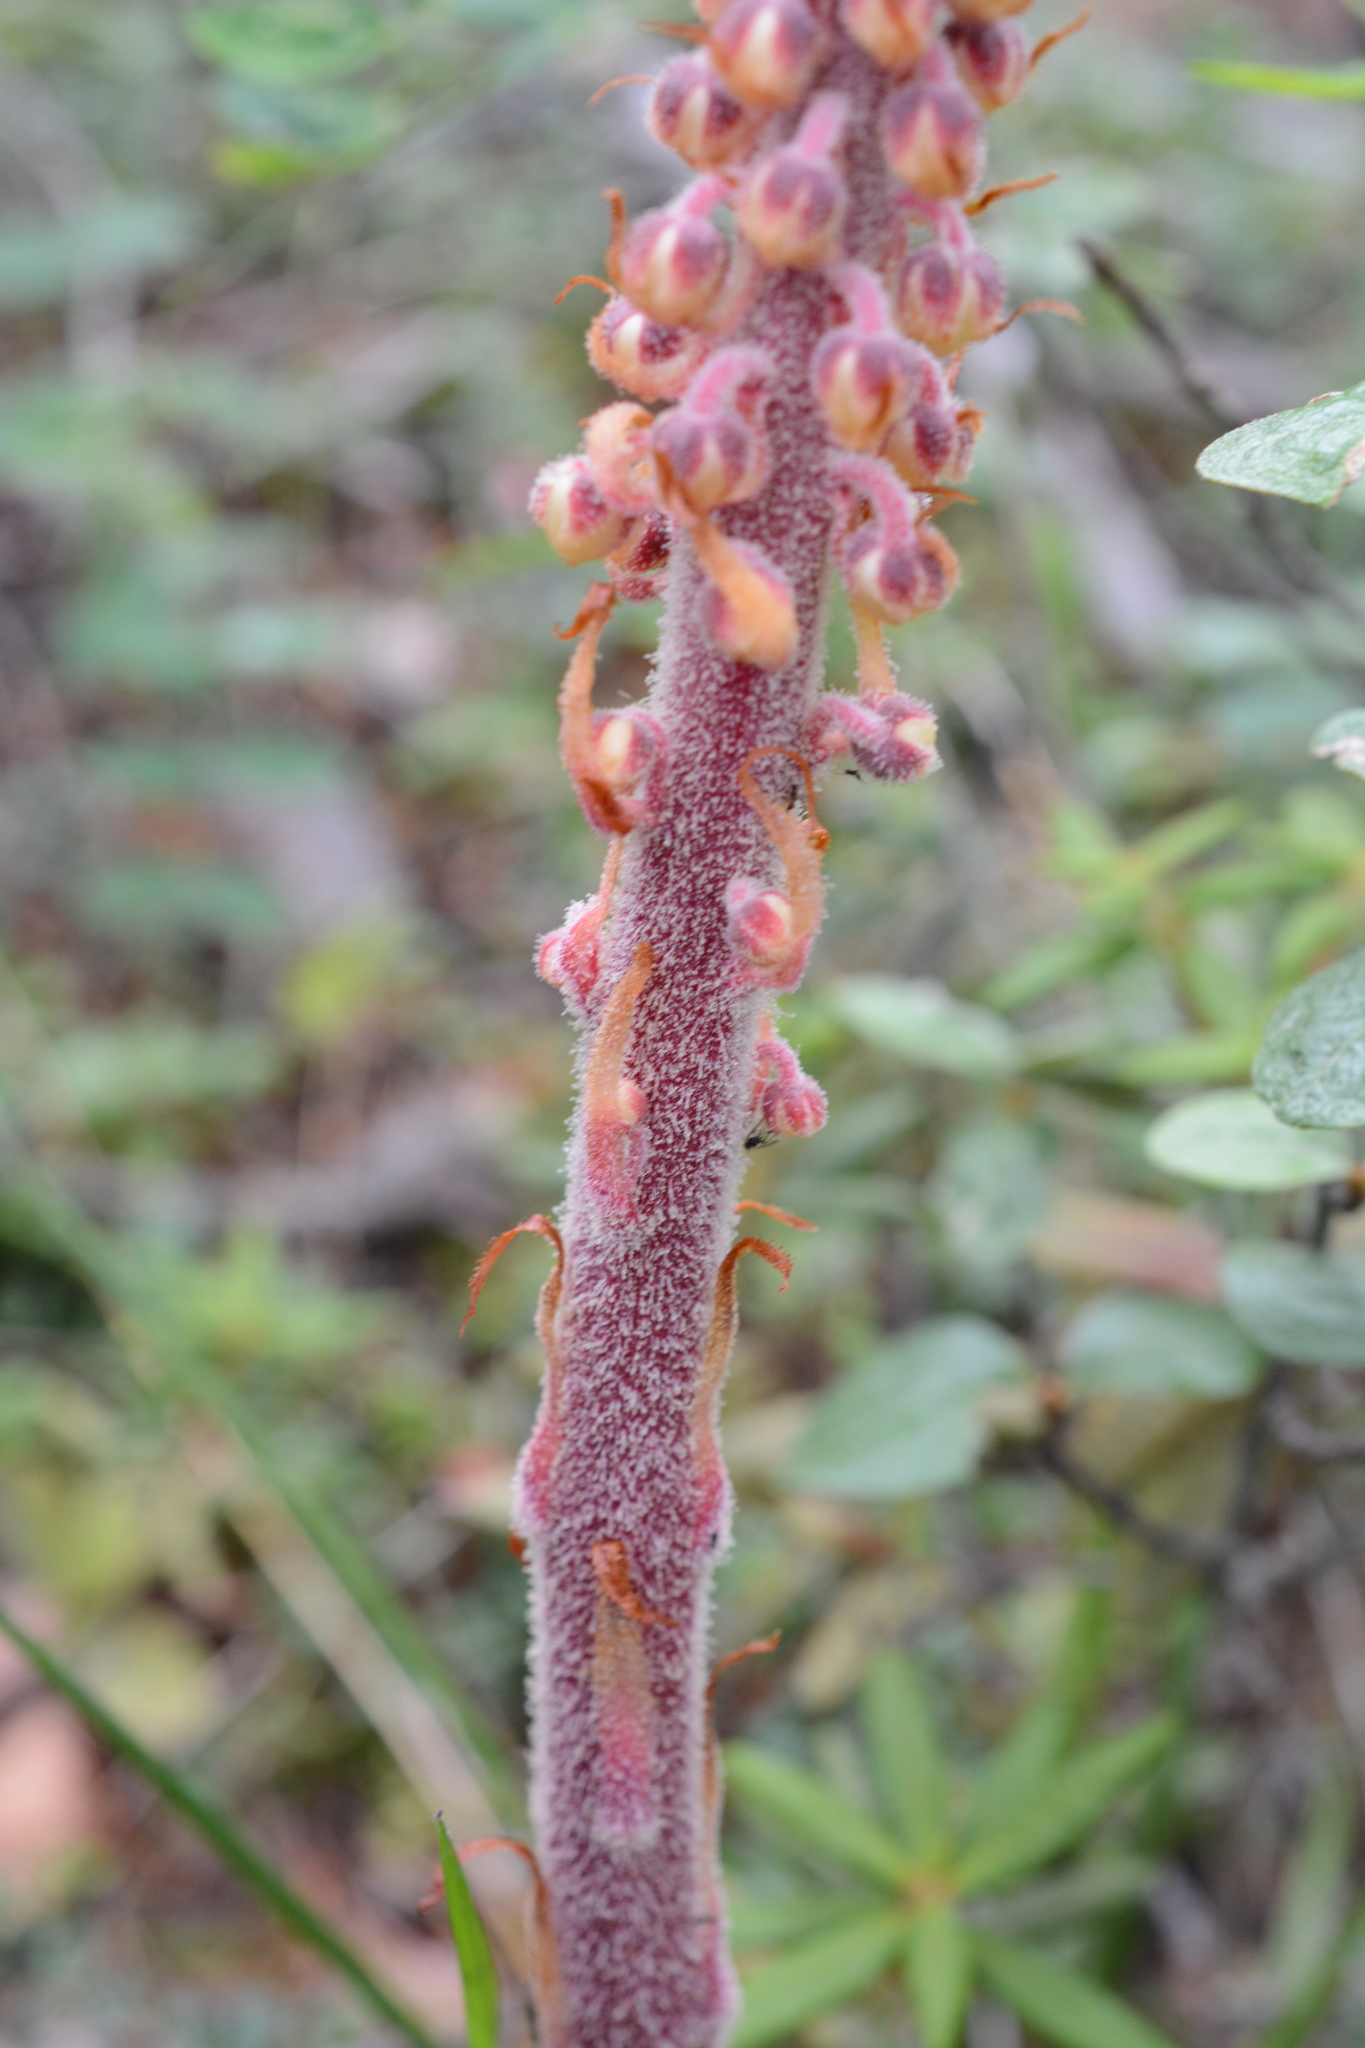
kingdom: Plantae
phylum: Tracheophyta
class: Magnoliopsida
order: Ericales
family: Ericaceae
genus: Pterospora
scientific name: Pterospora andromedea
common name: Giant bird's-nest
